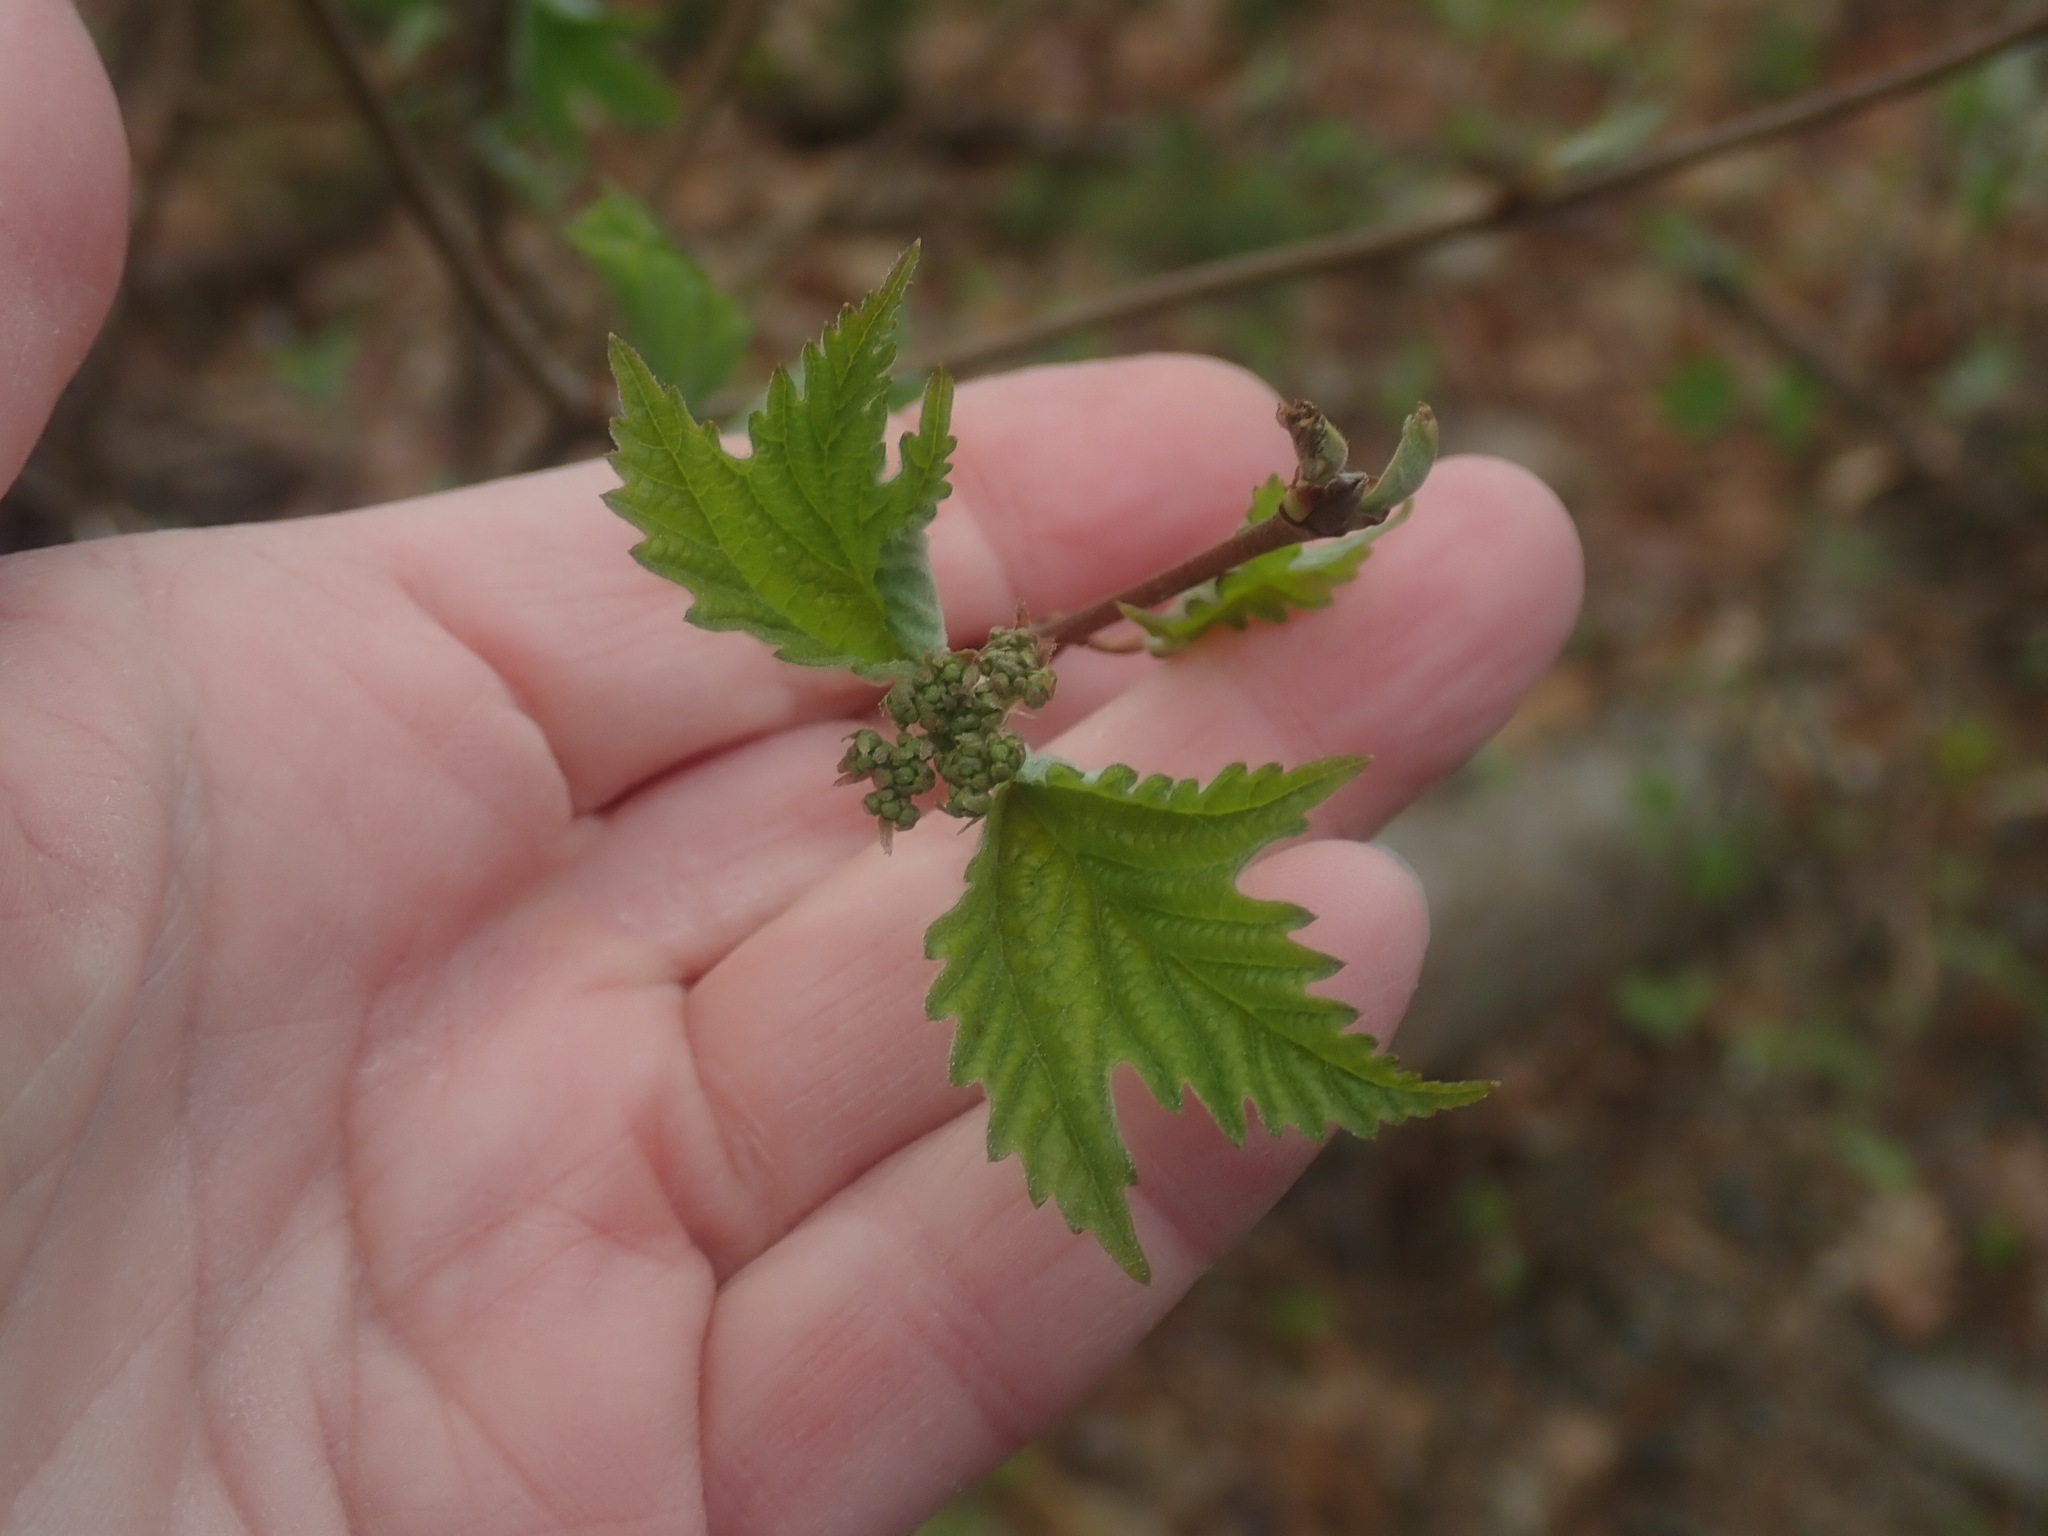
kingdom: Plantae
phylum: Tracheophyta
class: Magnoliopsida
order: Dipsacales
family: Viburnaceae
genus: Viburnum
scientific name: Viburnum acerifolium
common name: Dockmackie
